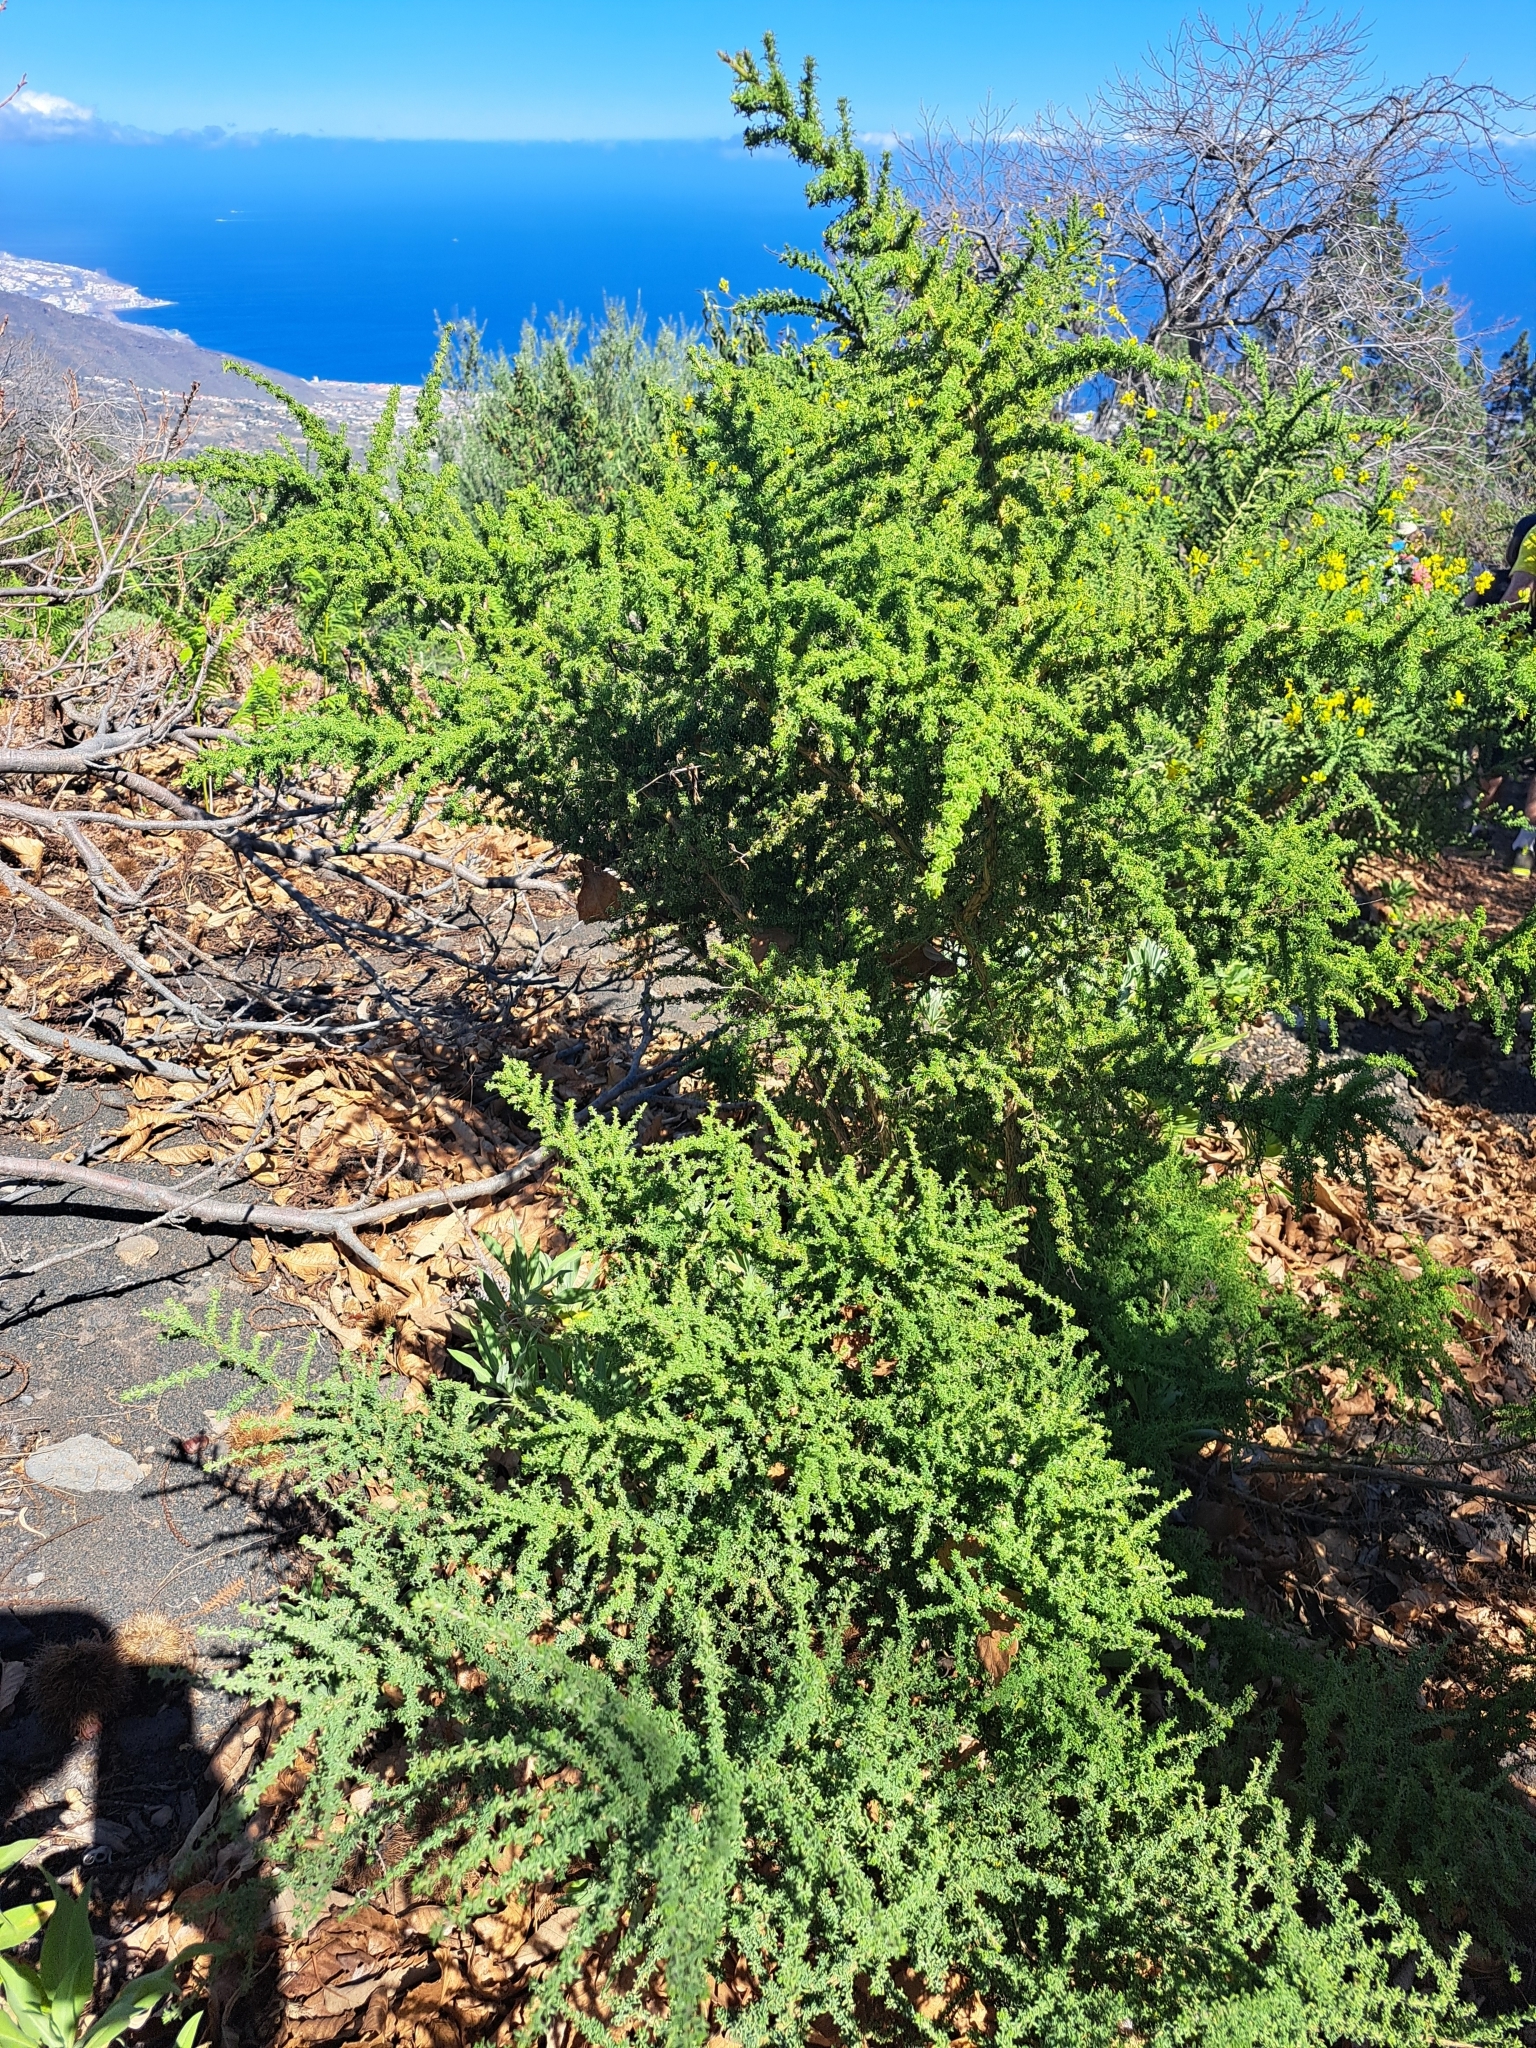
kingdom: Plantae
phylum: Tracheophyta
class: Magnoliopsida
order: Fabales
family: Fabaceae
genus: Adenocarpus
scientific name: Adenocarpus foliolosus
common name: Canary island flatpod
